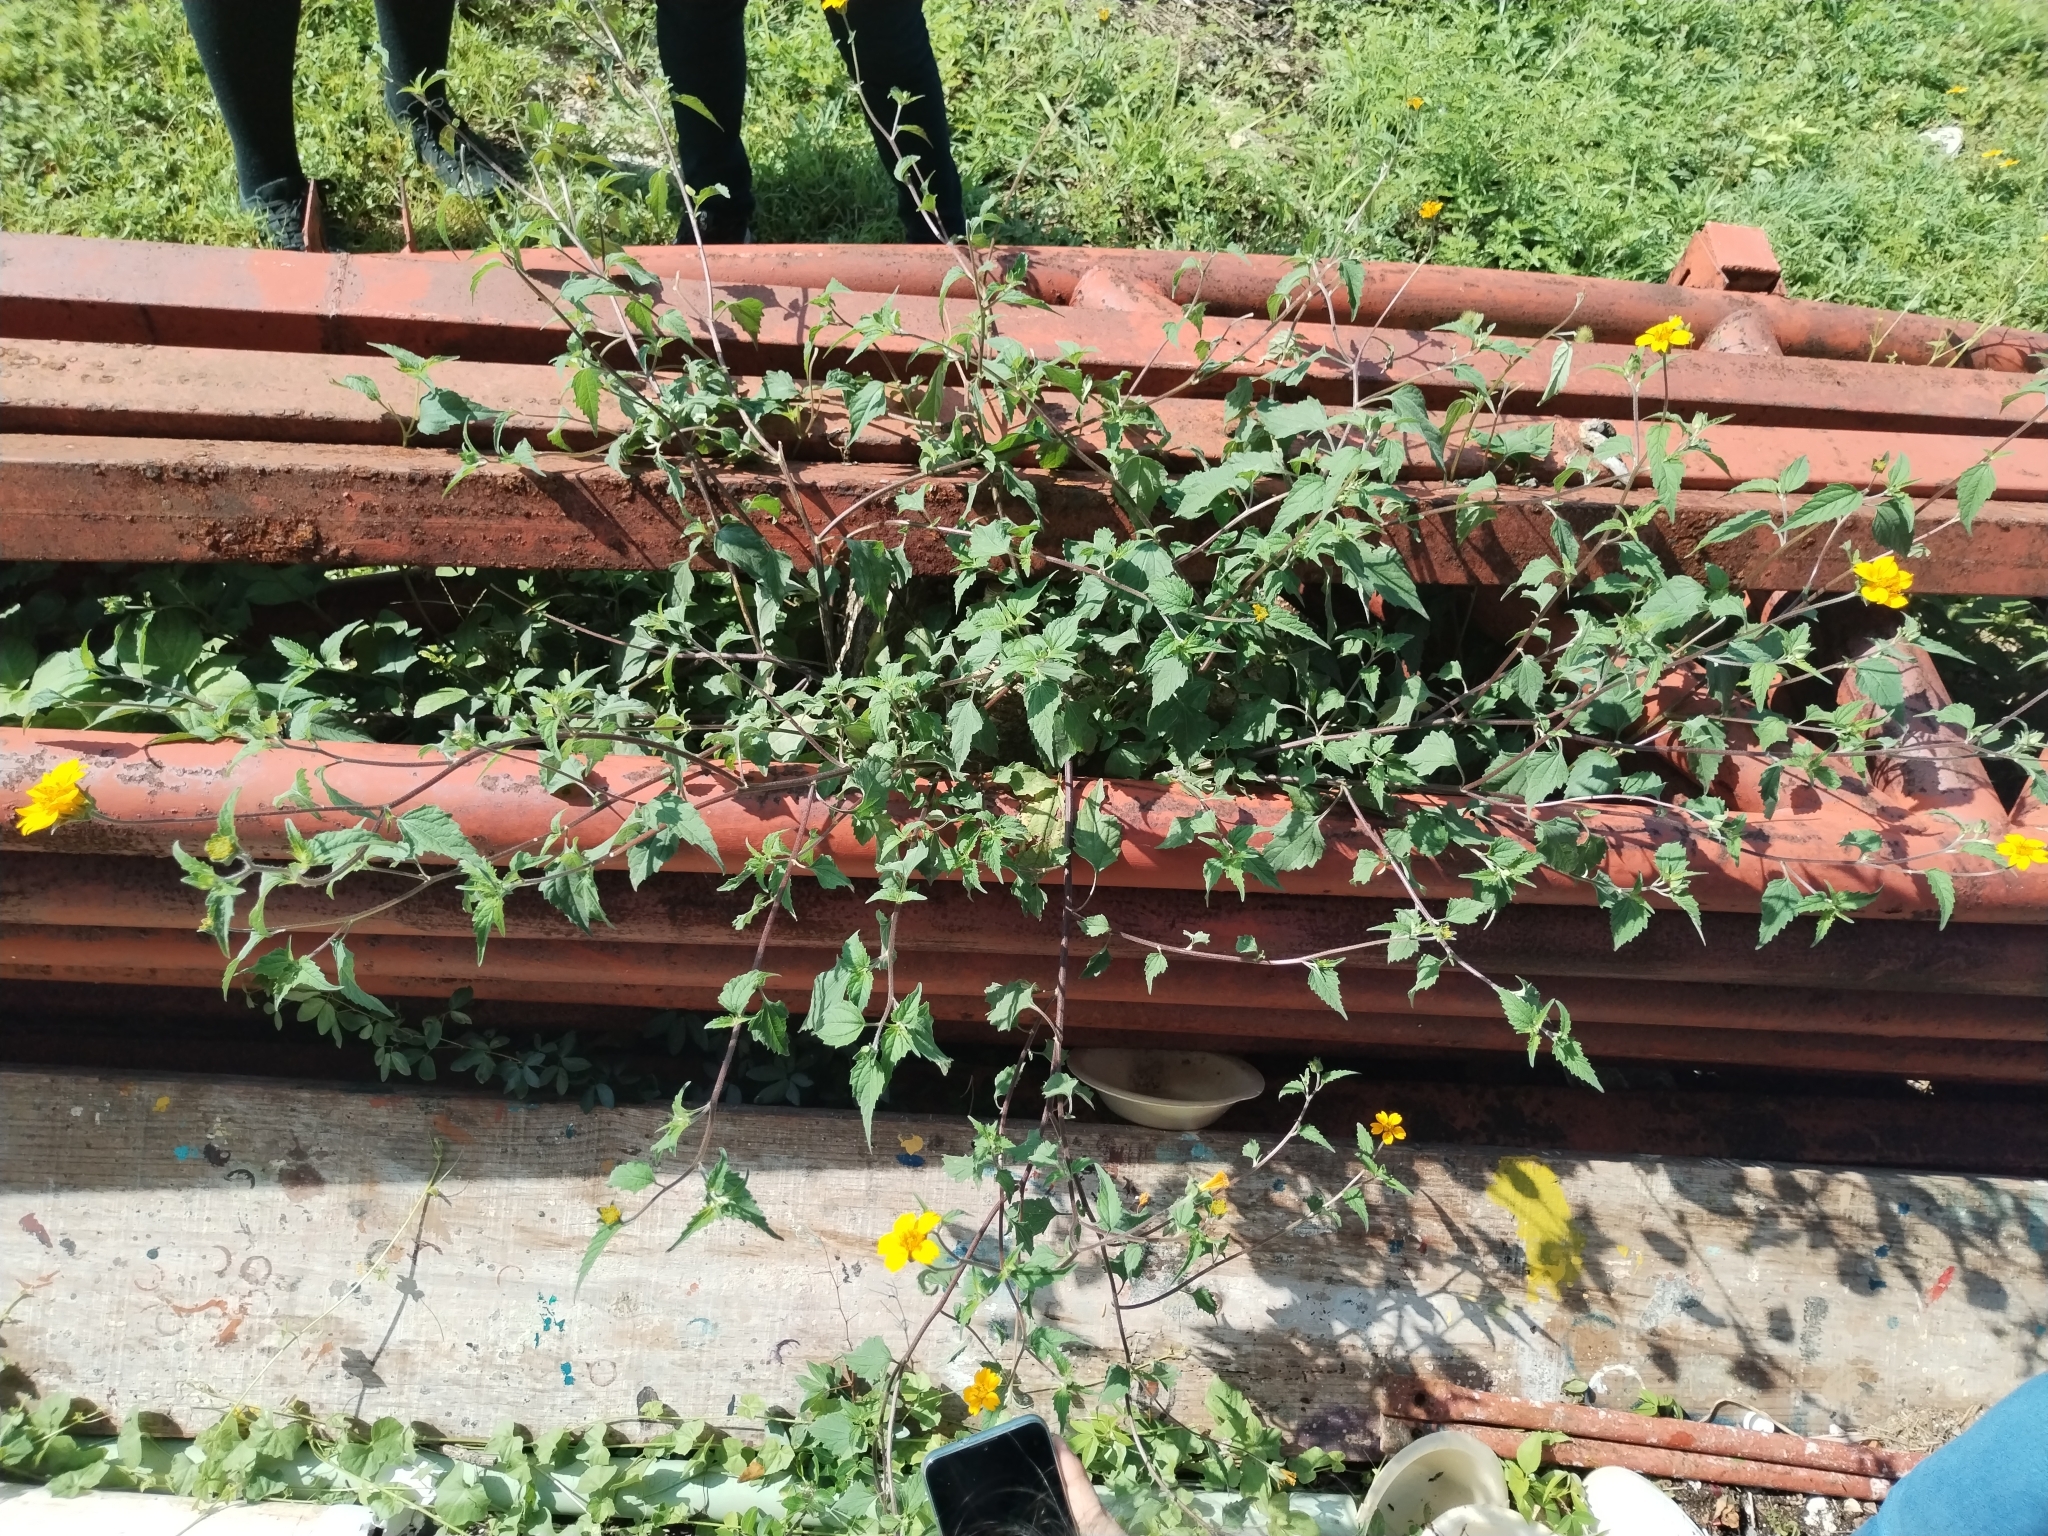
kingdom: Plantae
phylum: Tracheophyta
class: Magnoliopsida
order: Asterales
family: Asteraceae
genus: Sclerocarpus
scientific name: Sclerocarpus divaricatus
